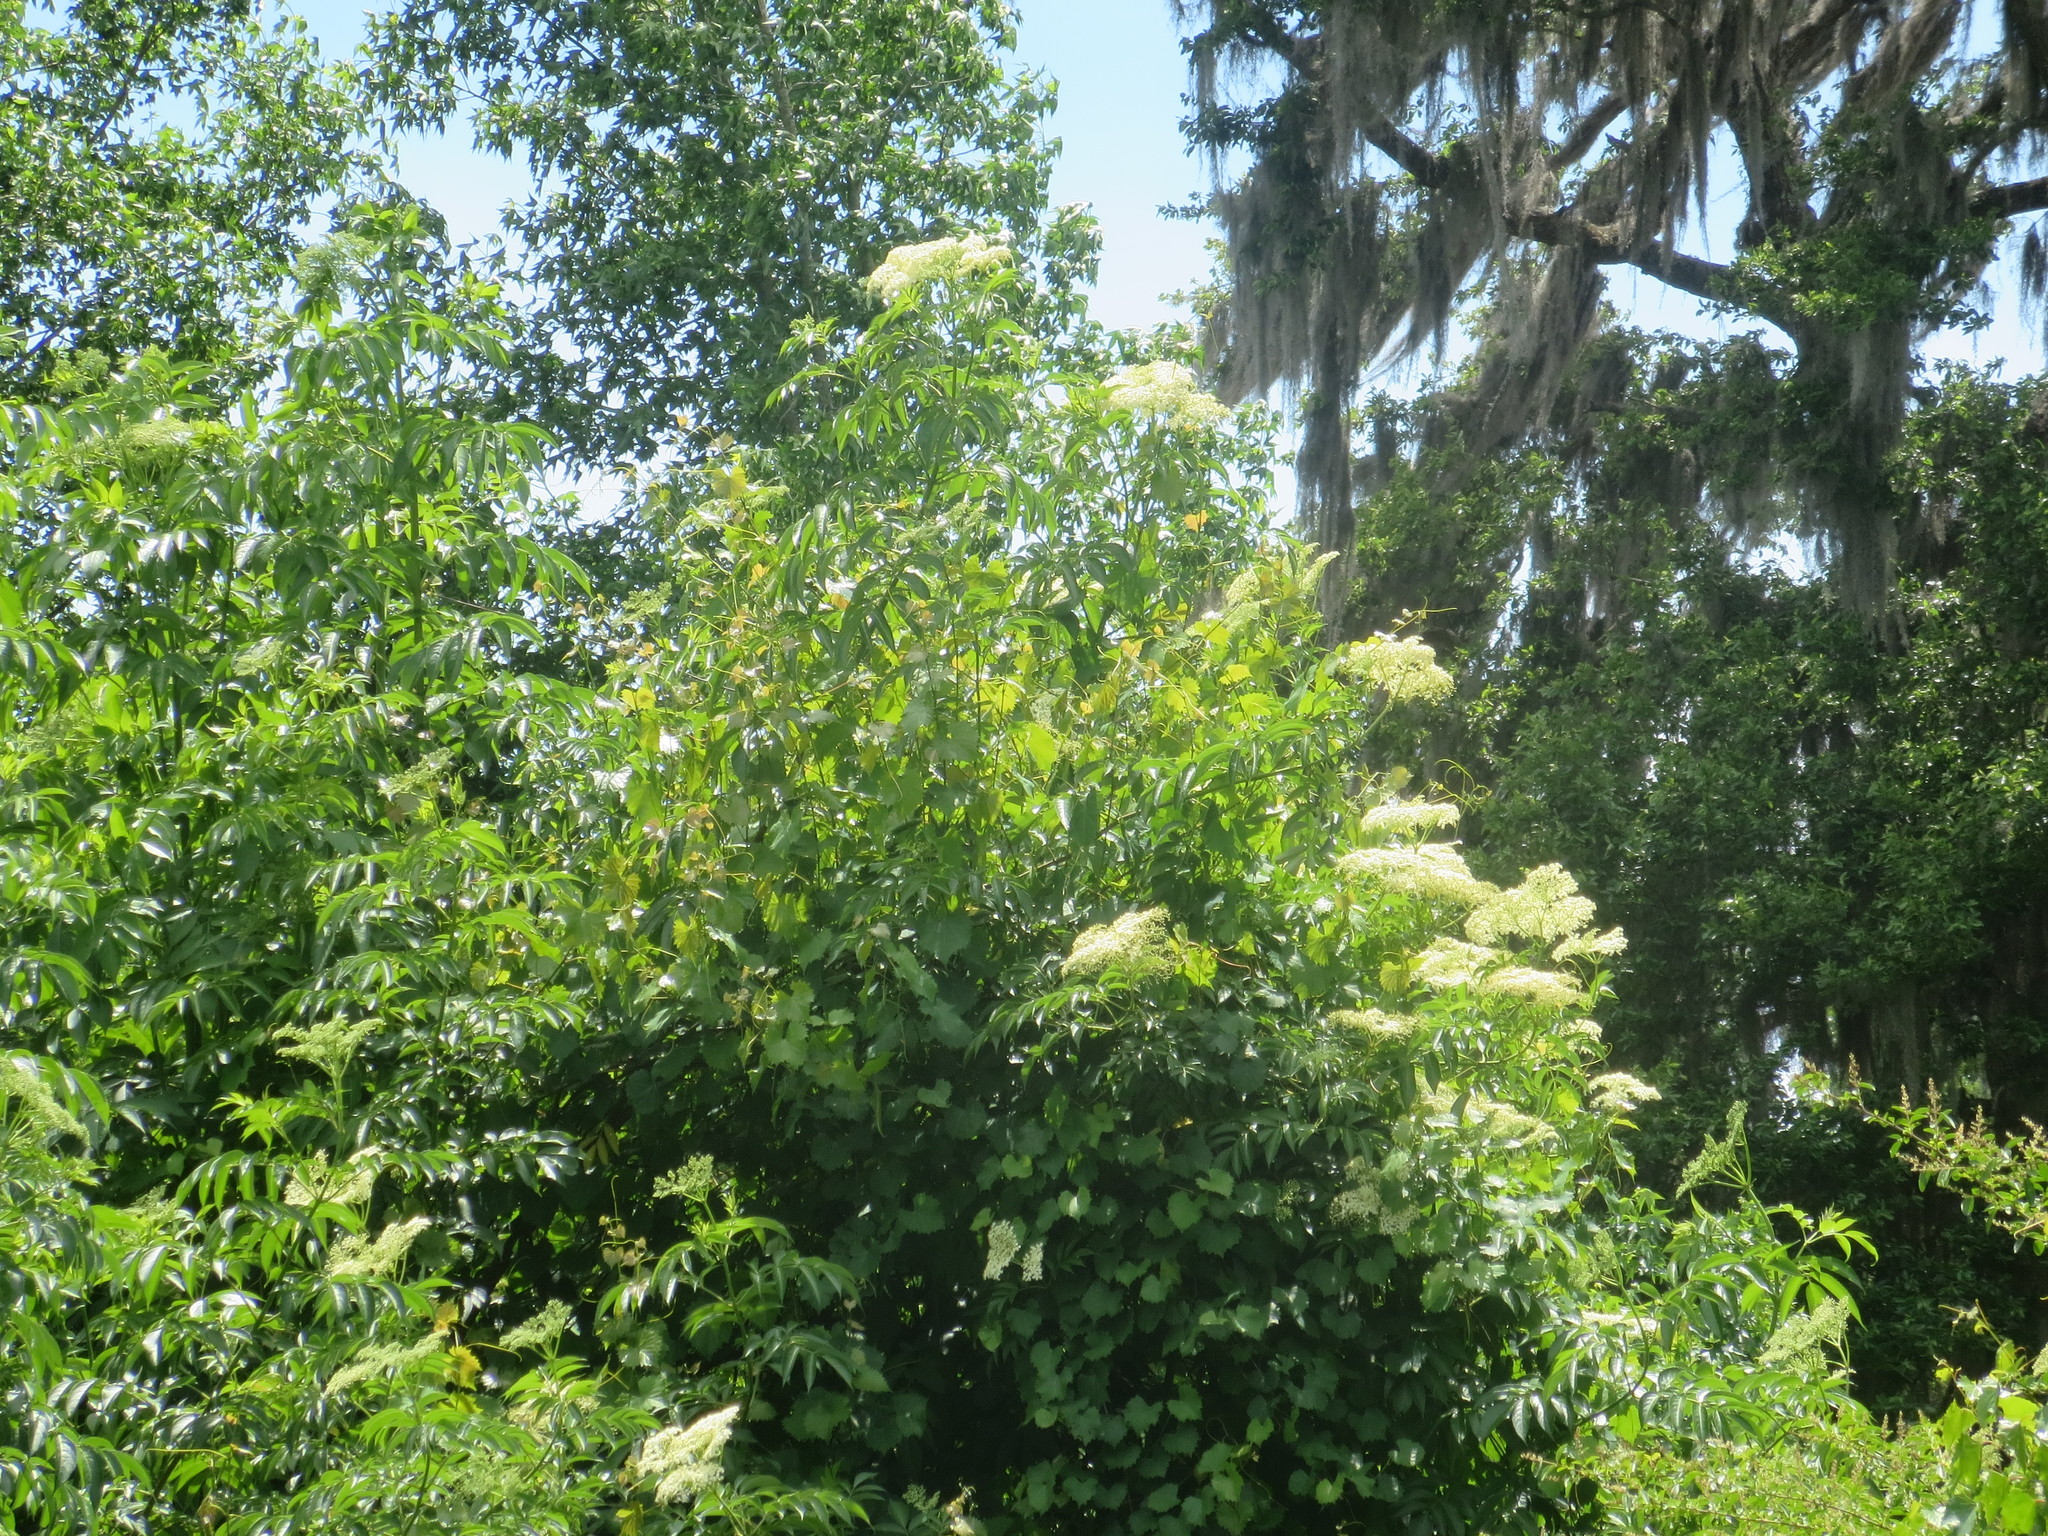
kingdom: Plantae
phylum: Tracheophyta
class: Magnoliopsida
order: Dipsacales
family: Viburnaceae
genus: Sambucus
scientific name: Sambucus canadensis
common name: American elder
